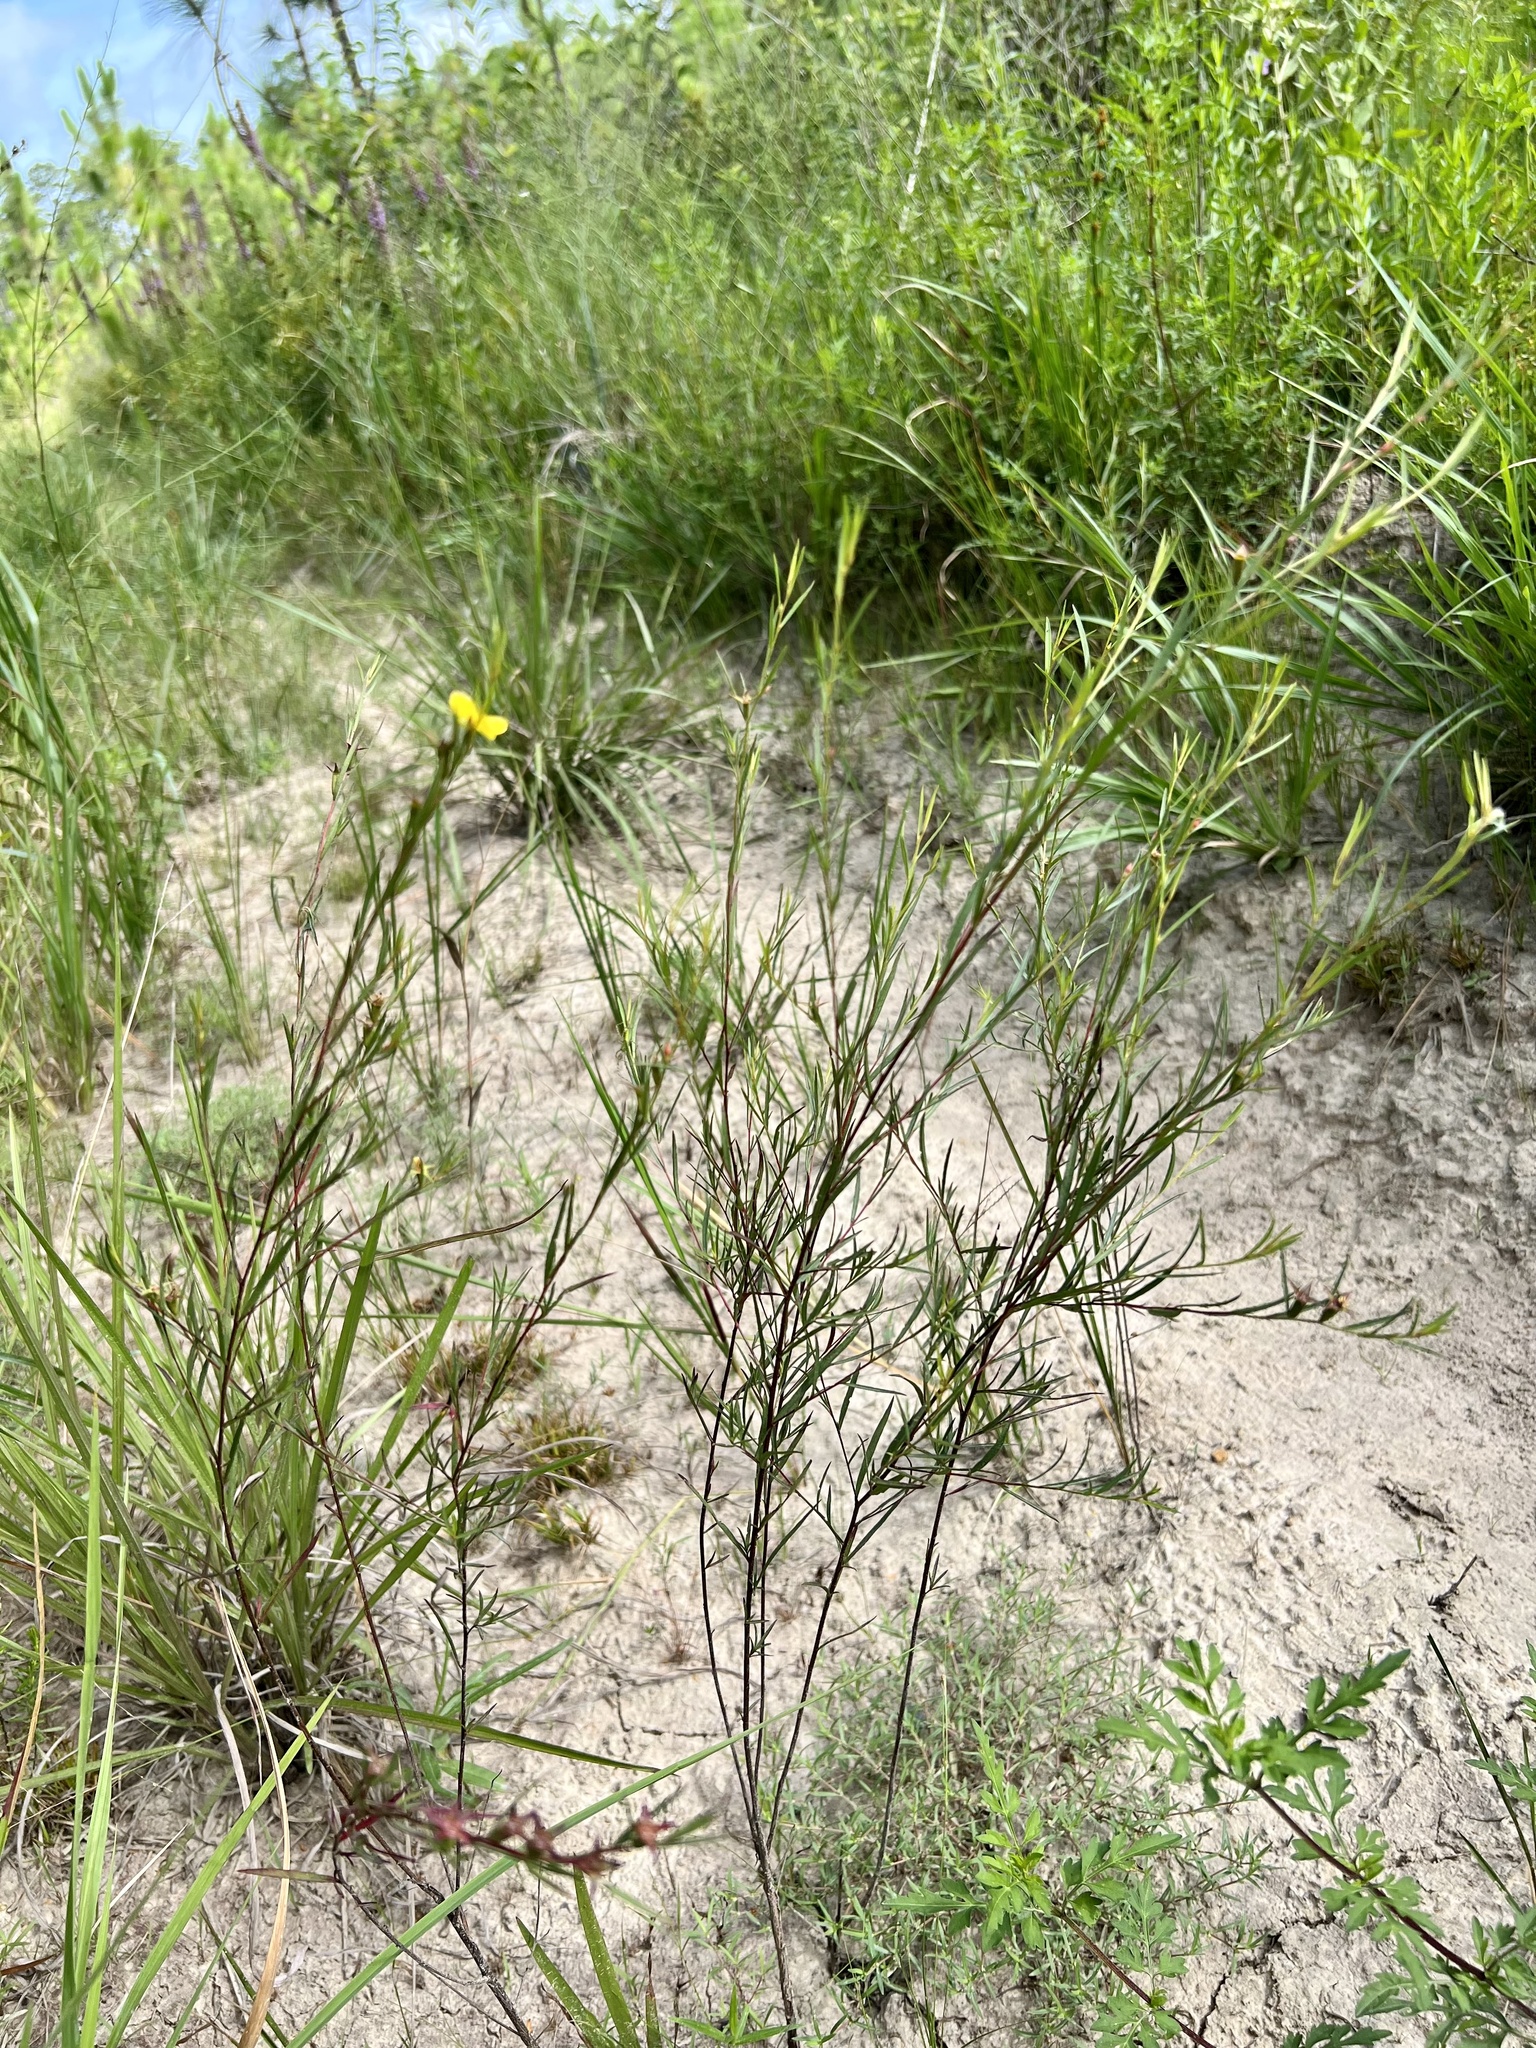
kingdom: Plantae
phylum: Tracheophyta
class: Magnoliopsida
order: Myrtales
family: Onagraceae
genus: Ludwigia
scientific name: Ludwigia linearis
